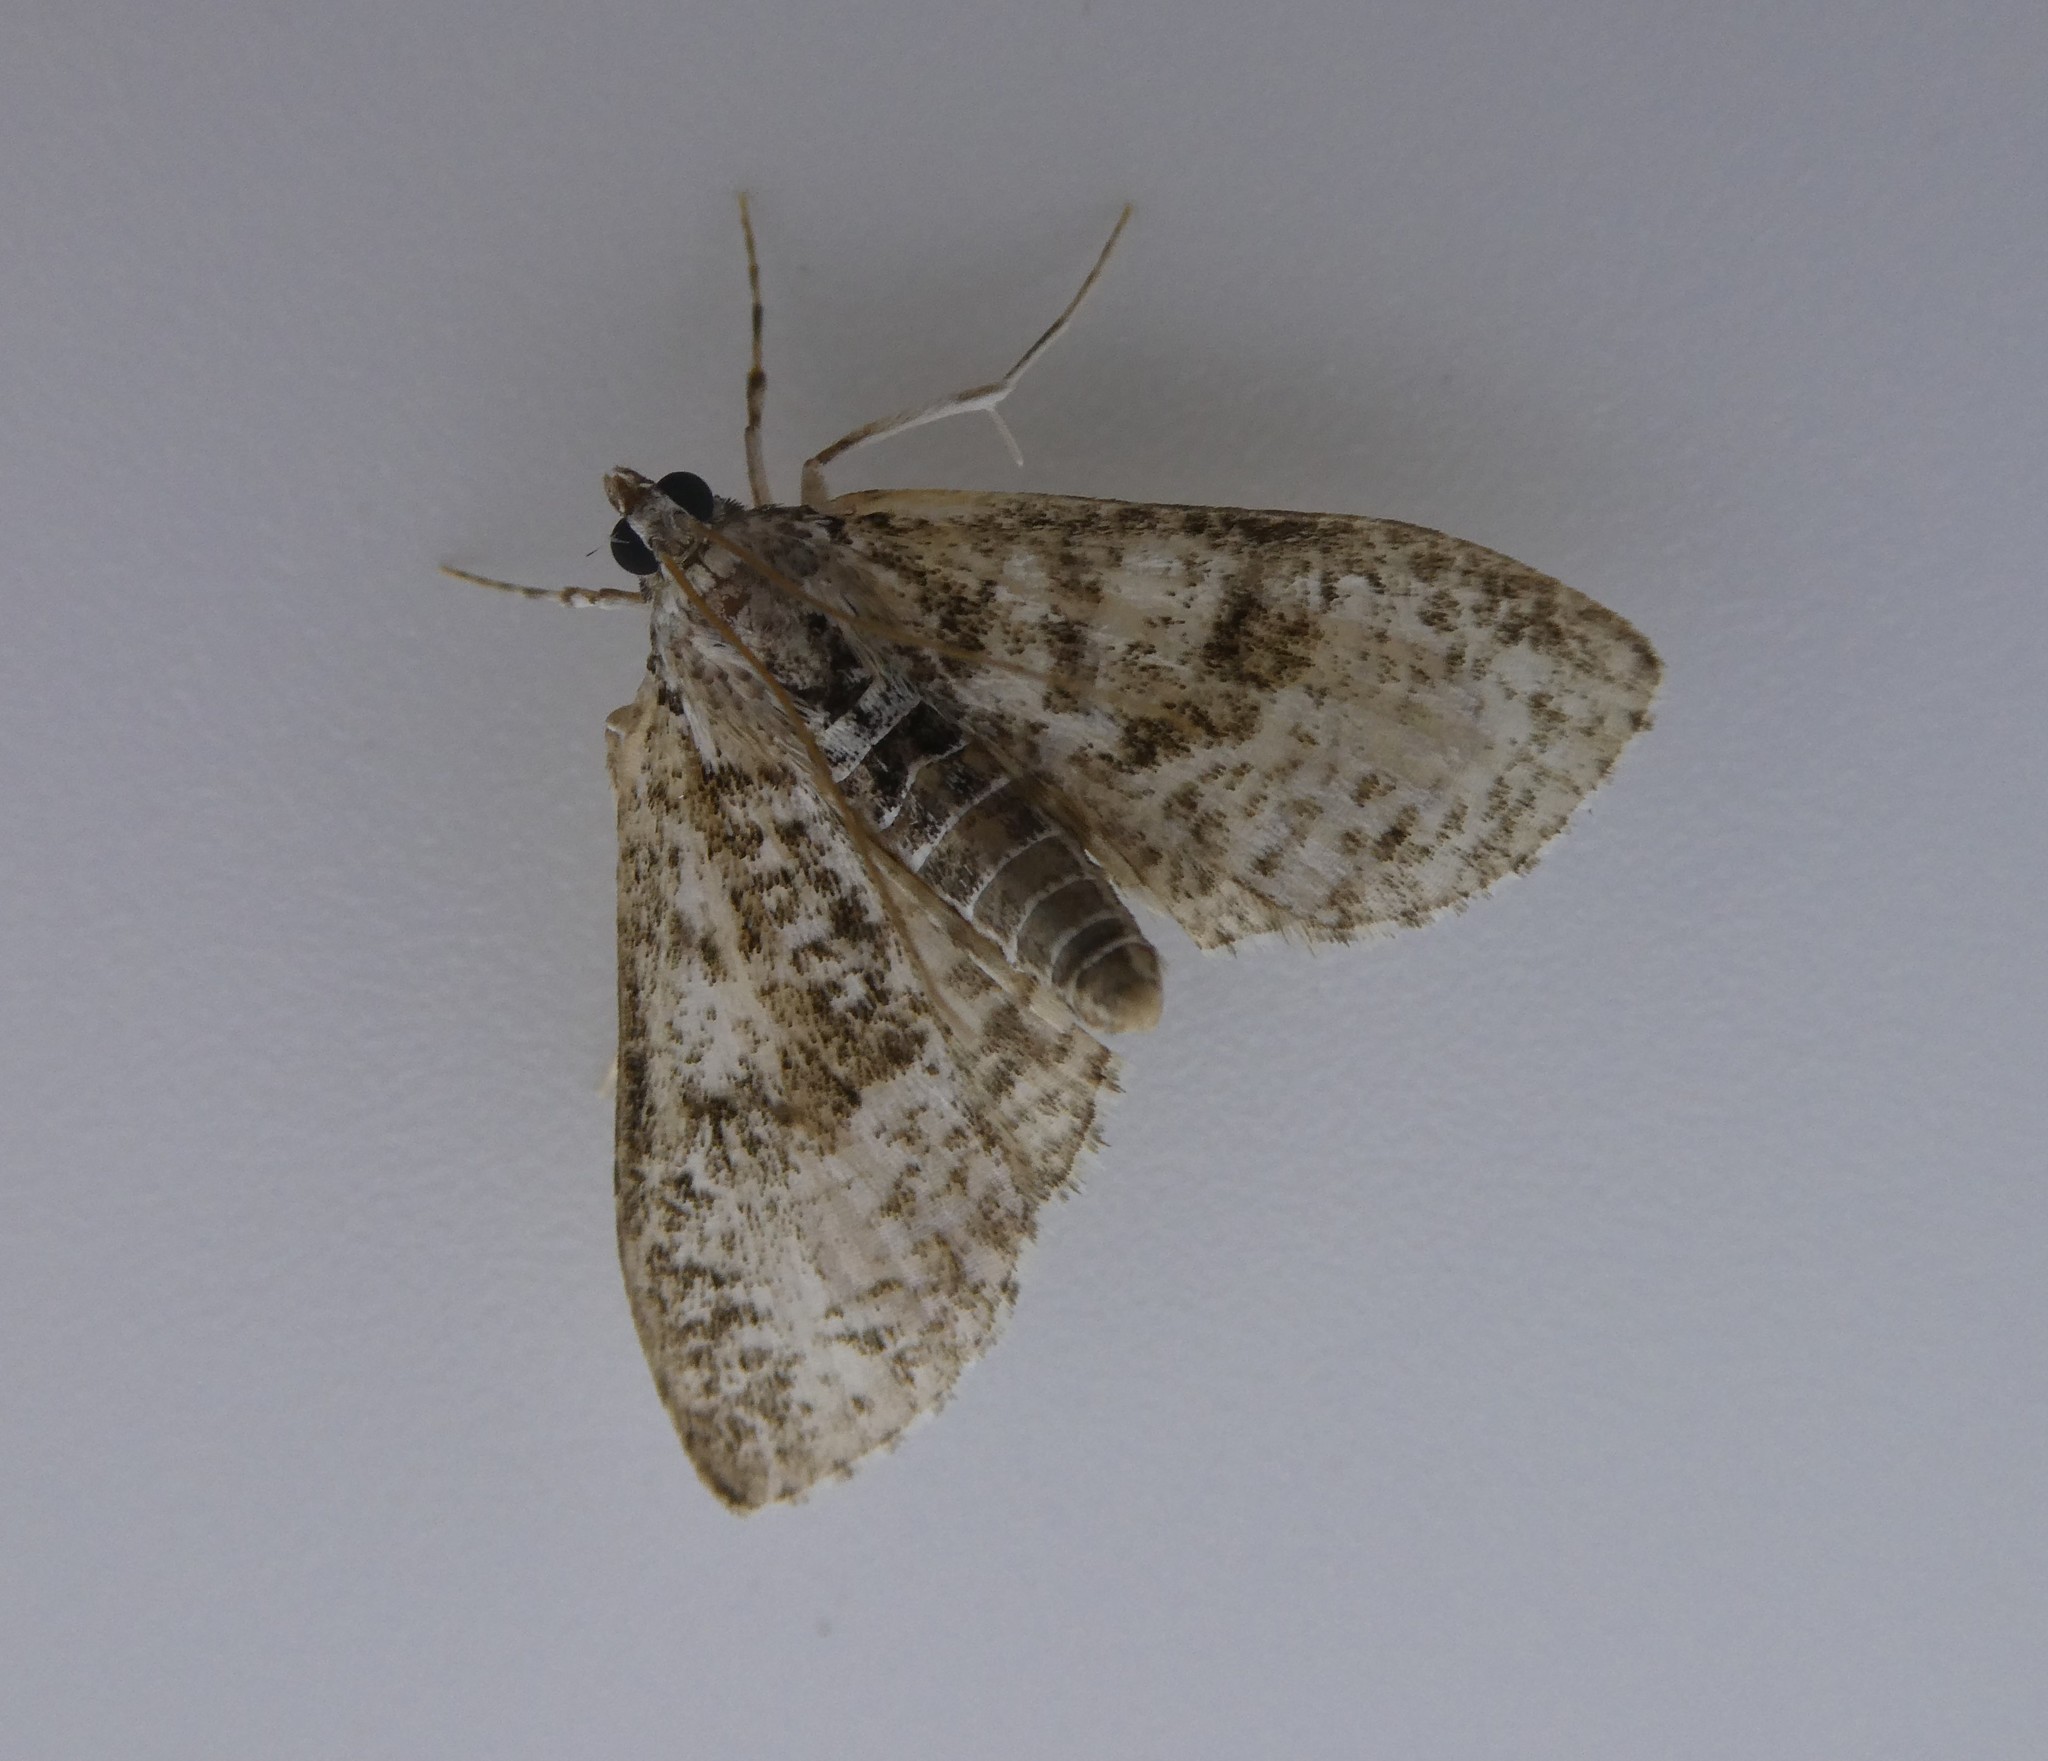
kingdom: Animalia
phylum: Arthropoda
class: Insecta
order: Lepidoptera
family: Crambidae
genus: Palpita
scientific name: Palpita magniferalis
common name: Splendid palpita moth
